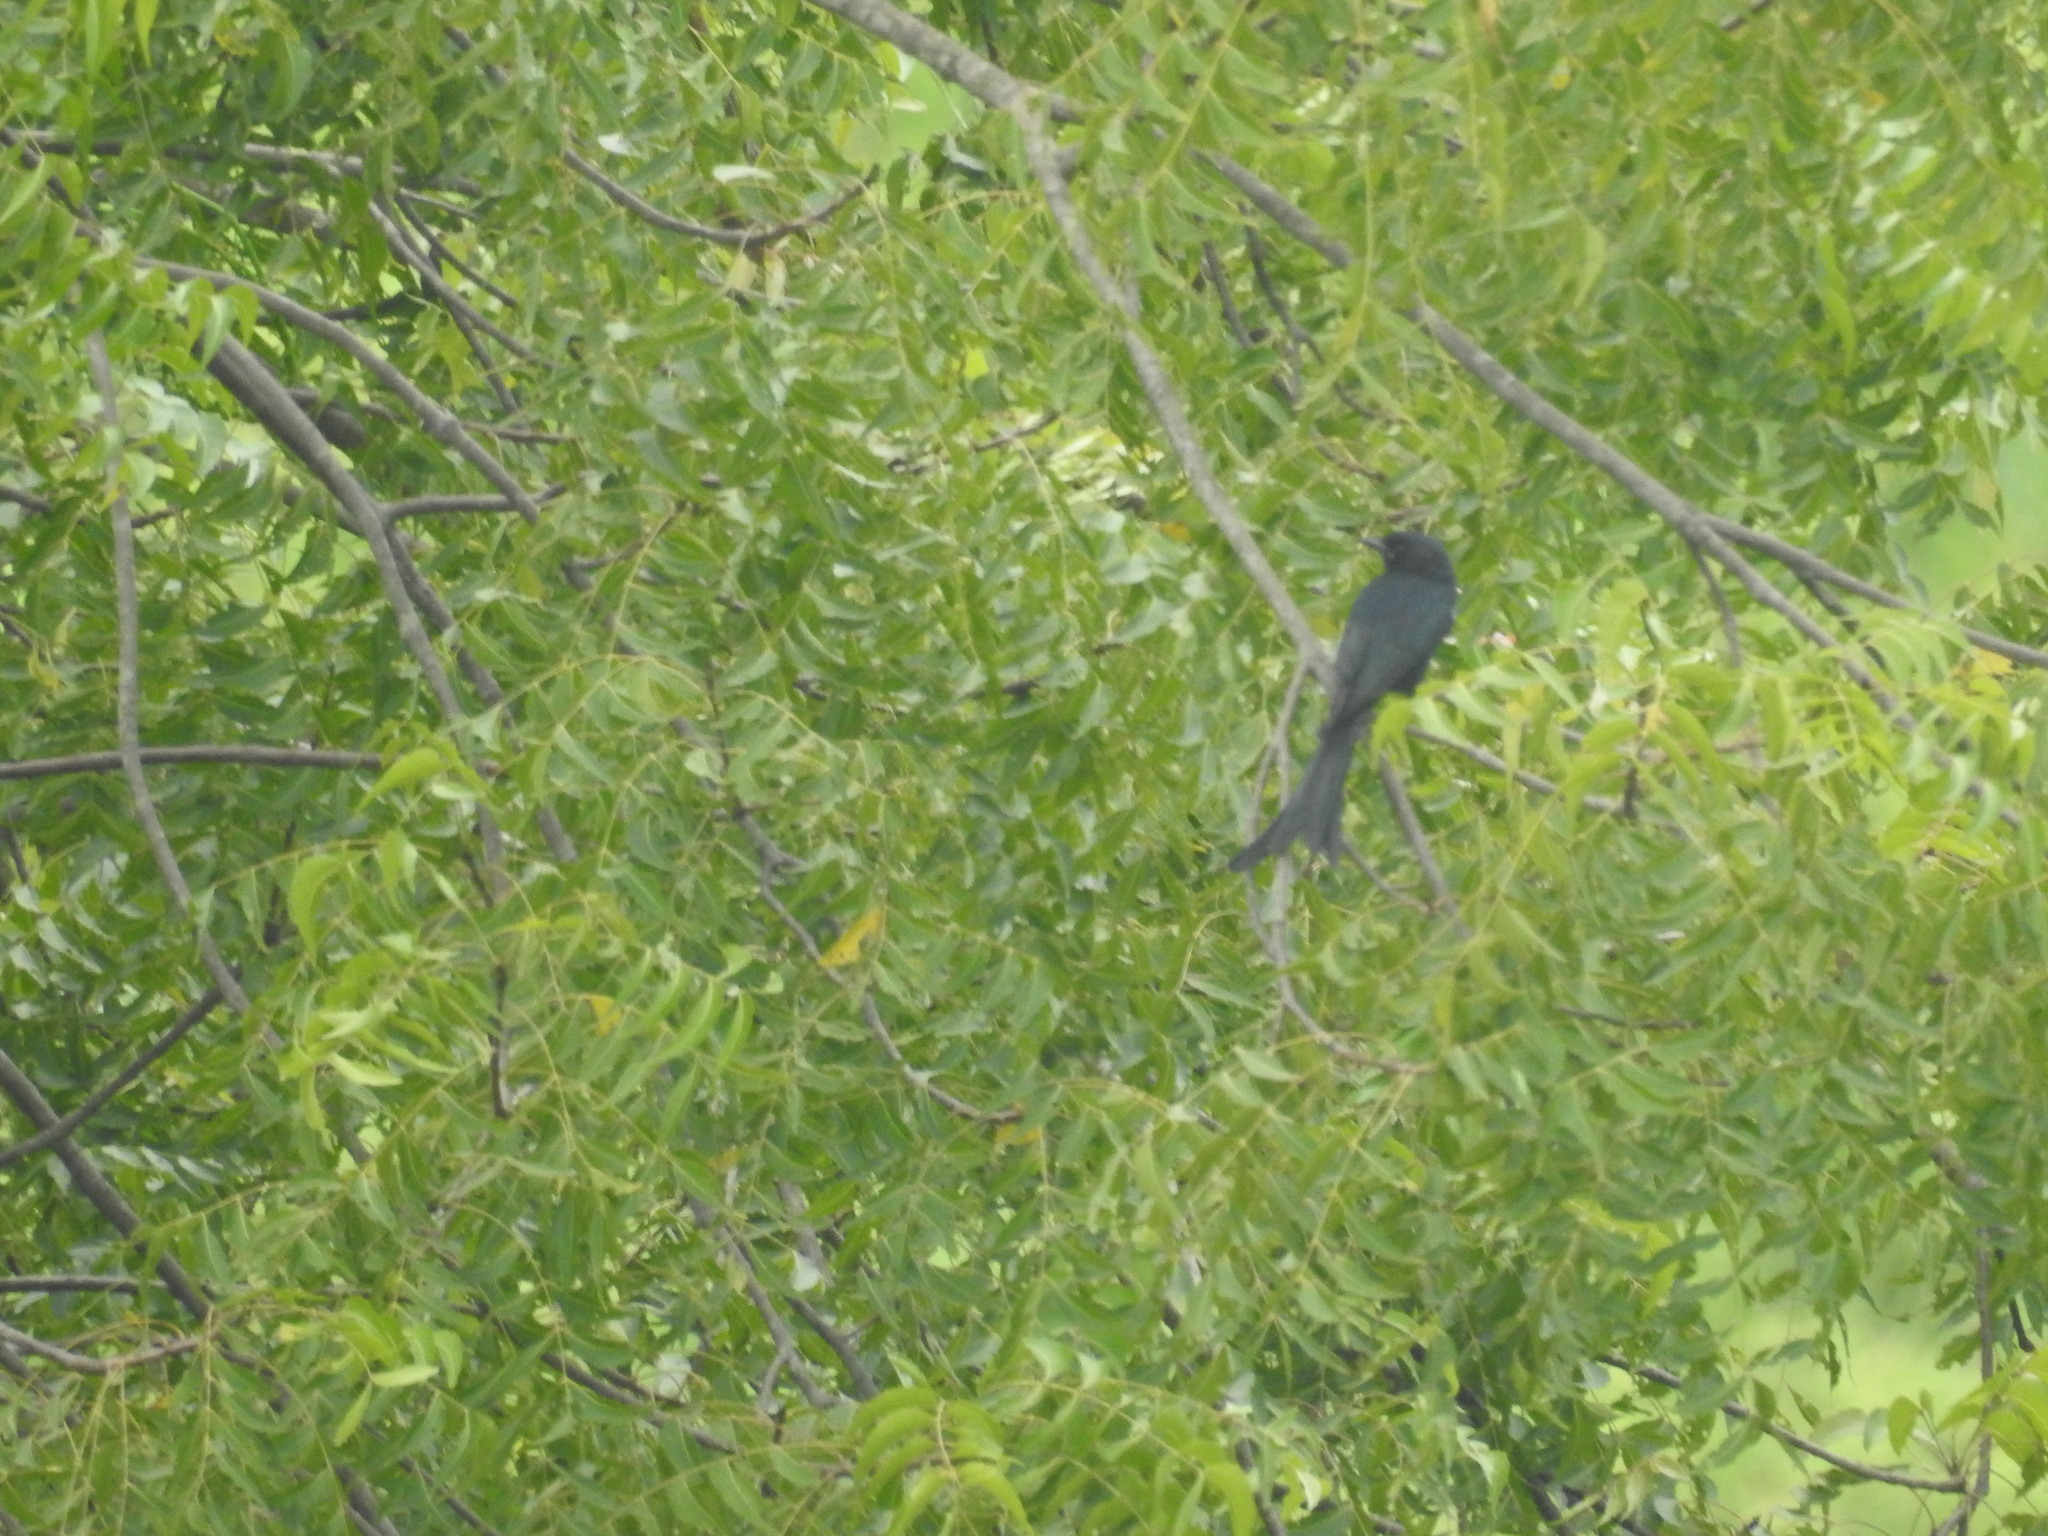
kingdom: Animalia
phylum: Chordata
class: Aves
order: Passeriformes
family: Dicruridae
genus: Dicrurus
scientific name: Dicrurus macrocercus
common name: Black drongo
